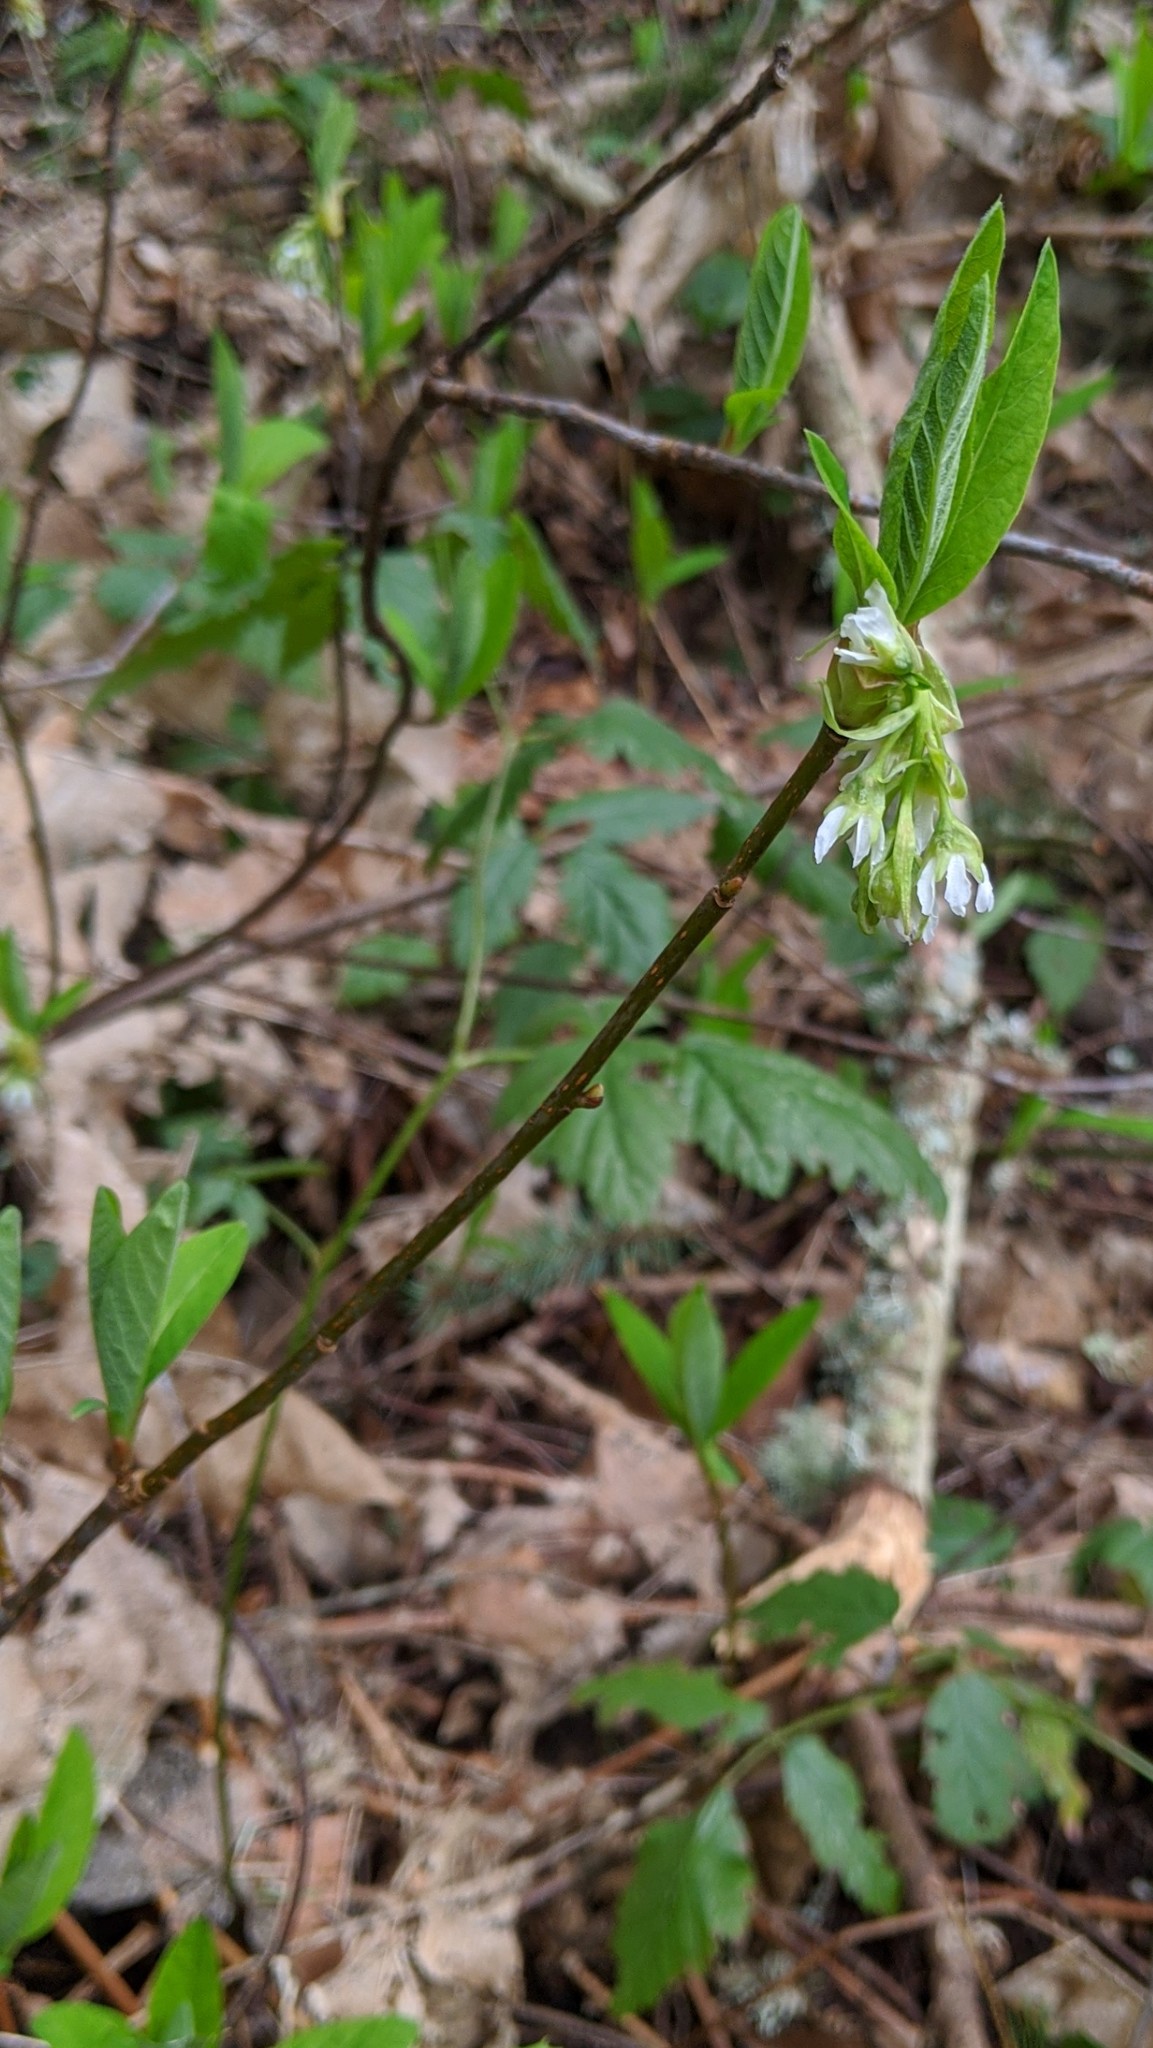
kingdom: Plantae
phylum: Tracheophyta
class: Magnoliopsida
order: Rosales
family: Rosaceae
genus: Oemleria
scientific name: Oemleria cerasiformis
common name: Osoberry
